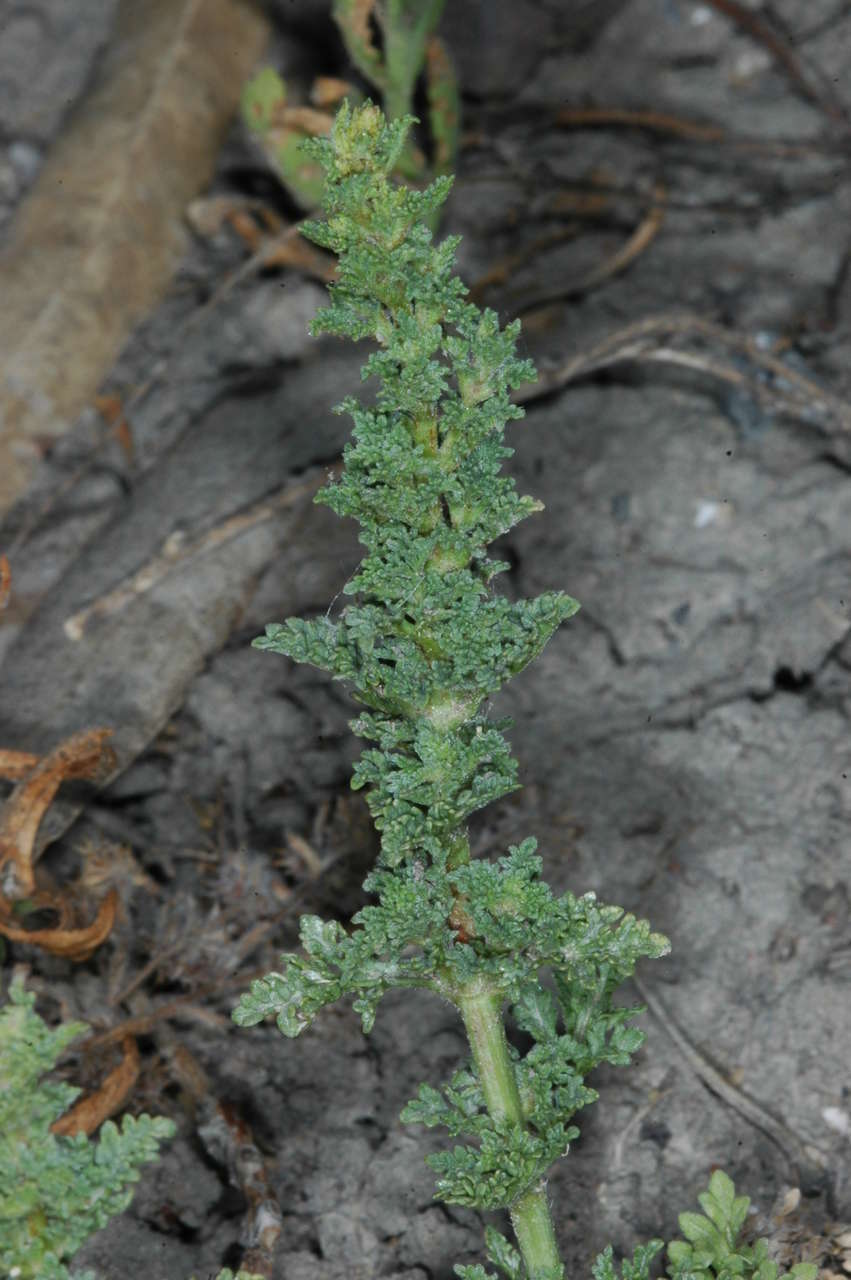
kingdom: Plantae
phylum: Tracheophyta
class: Magnoliopsida
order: Lamiales
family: Verbenaceae
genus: Verbena
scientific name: Verbena supina
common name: Trailing vervain
